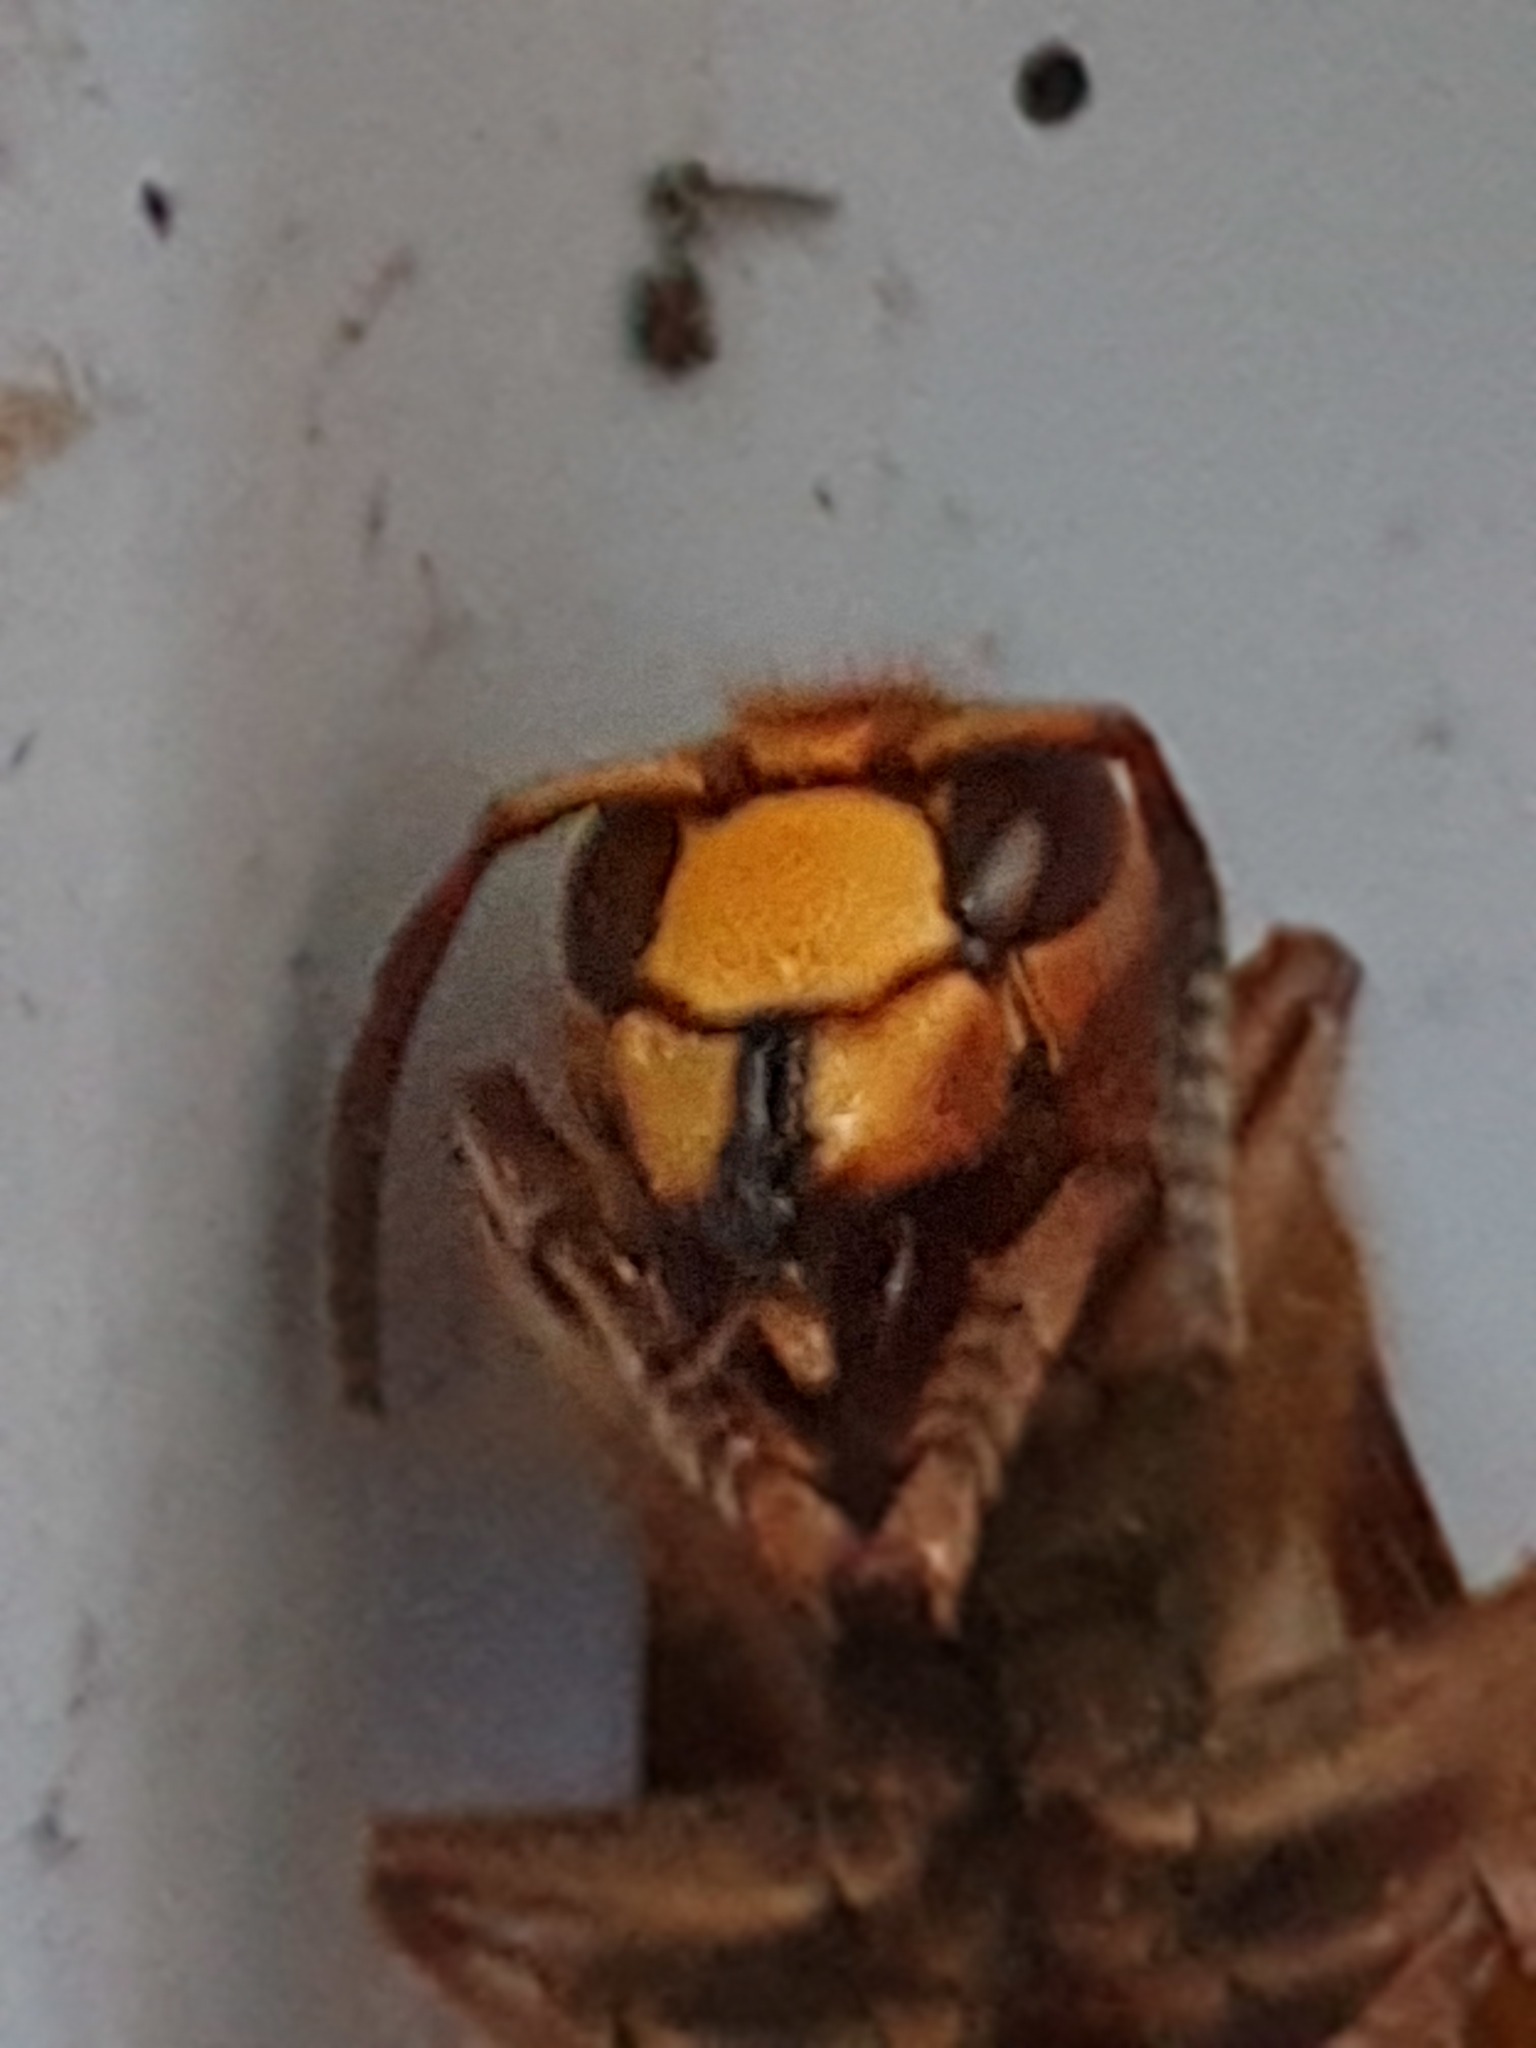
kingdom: Animalia
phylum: Arthropoda
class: Insecta
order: Hymenoptera
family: Vespidae
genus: Vespa
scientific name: Vespa crabro
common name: Hornet
